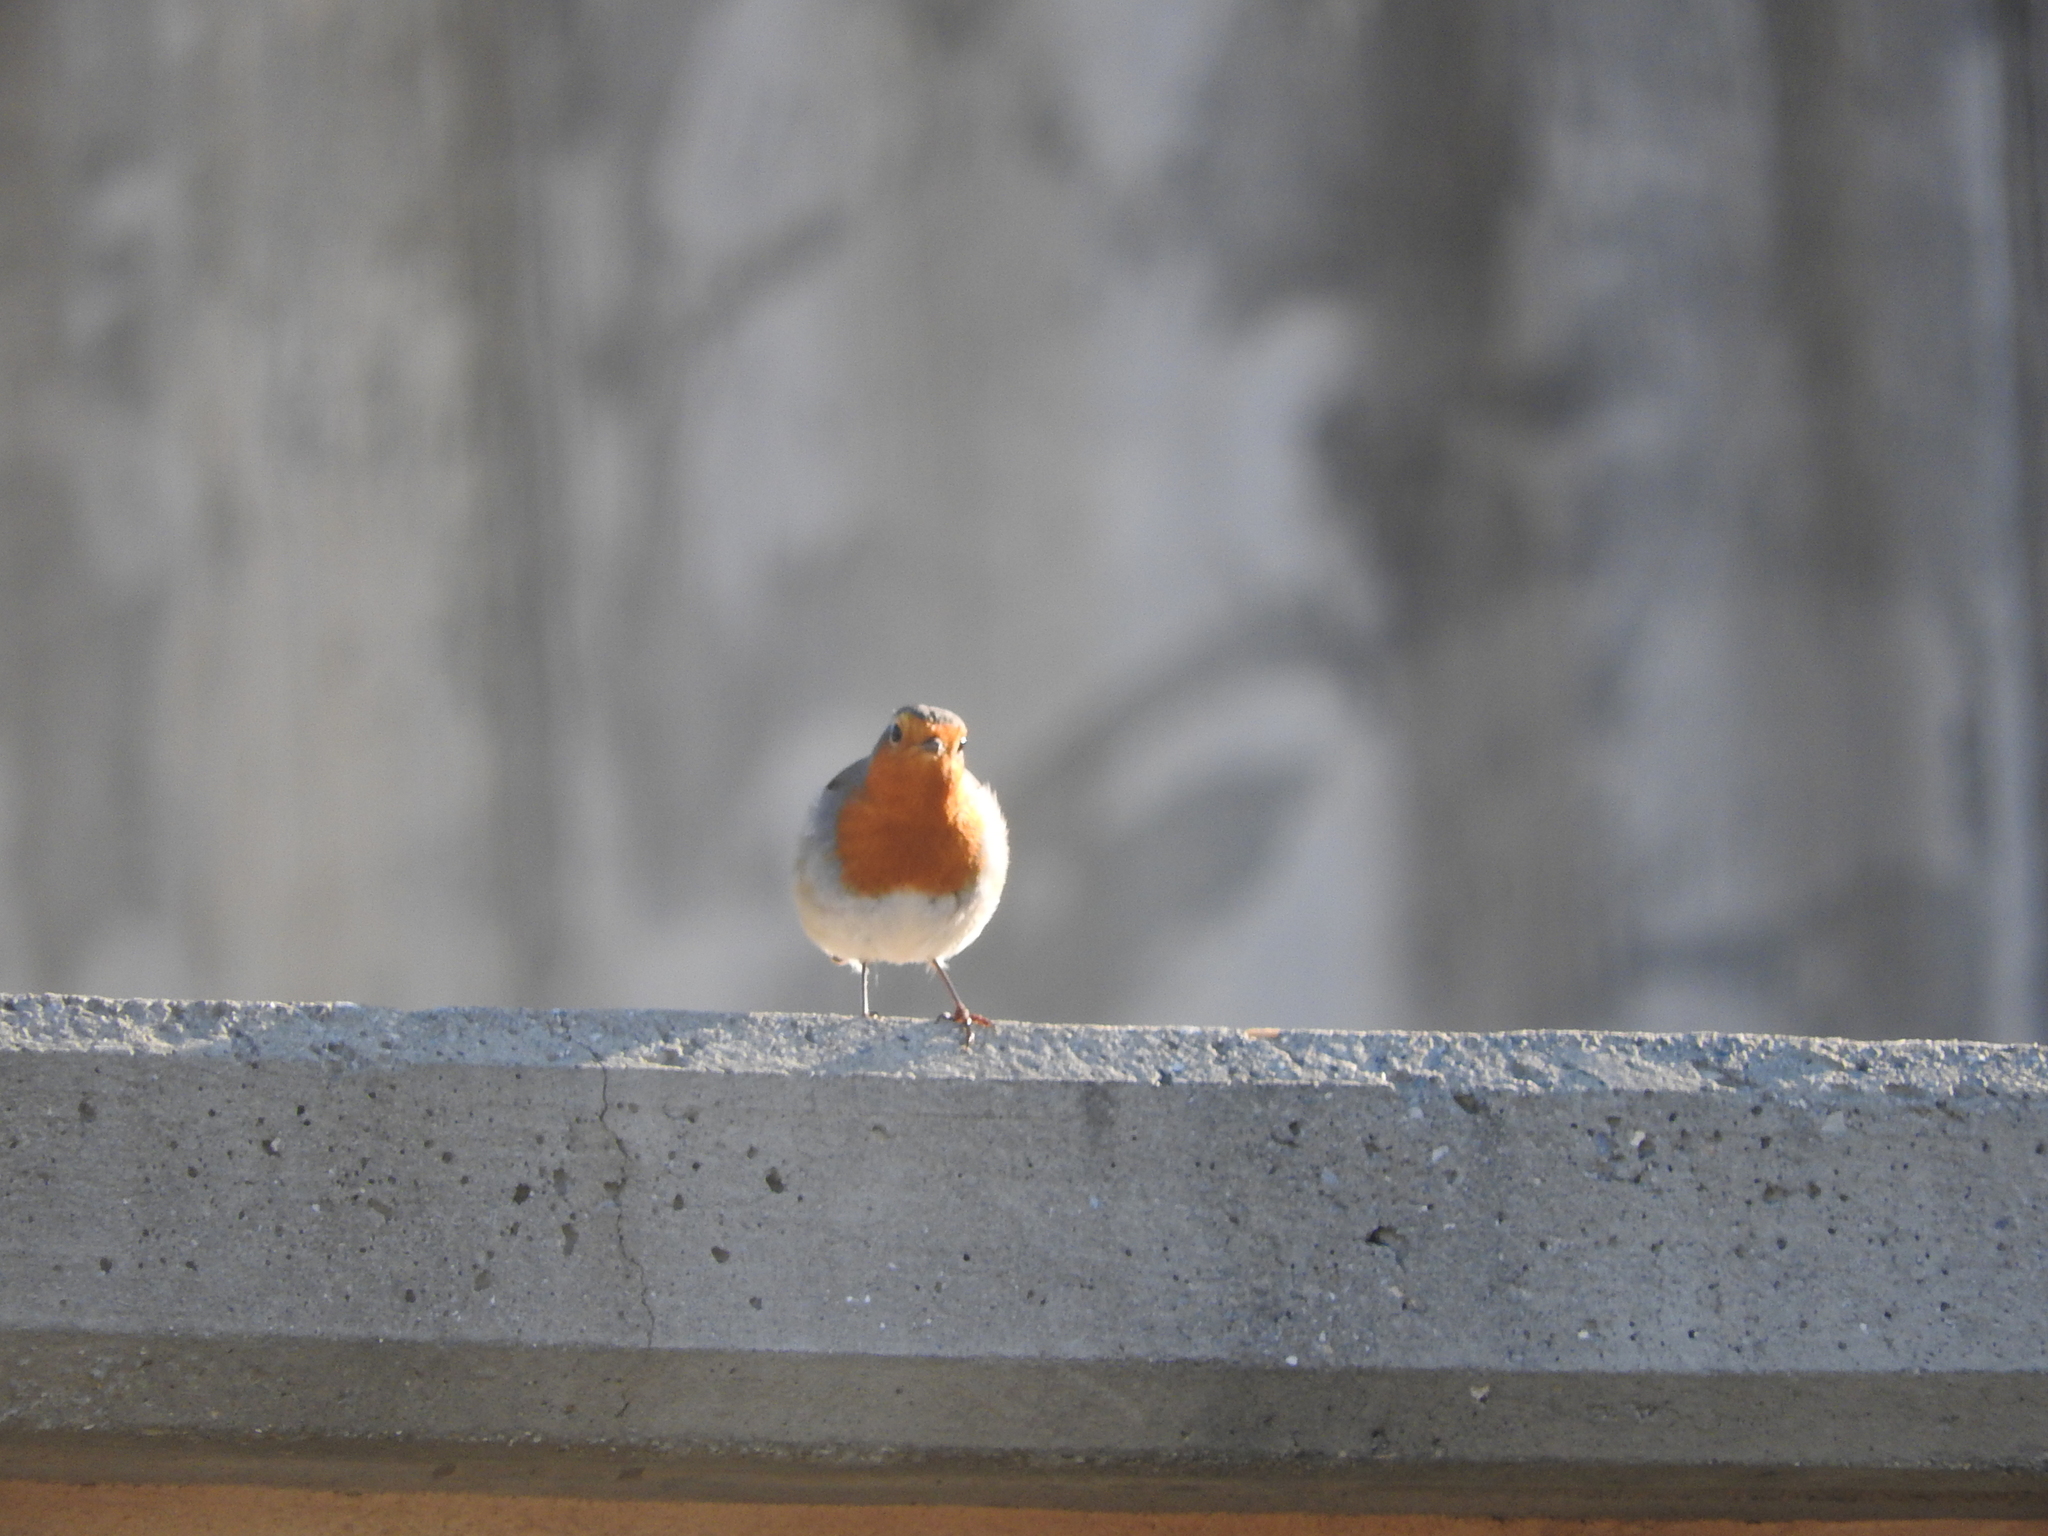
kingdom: Animalia
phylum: Chordata
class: Aves
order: Passeriformes
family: Muscicapidae
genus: Erithacus
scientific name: Erithacus rubecula
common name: European robin
